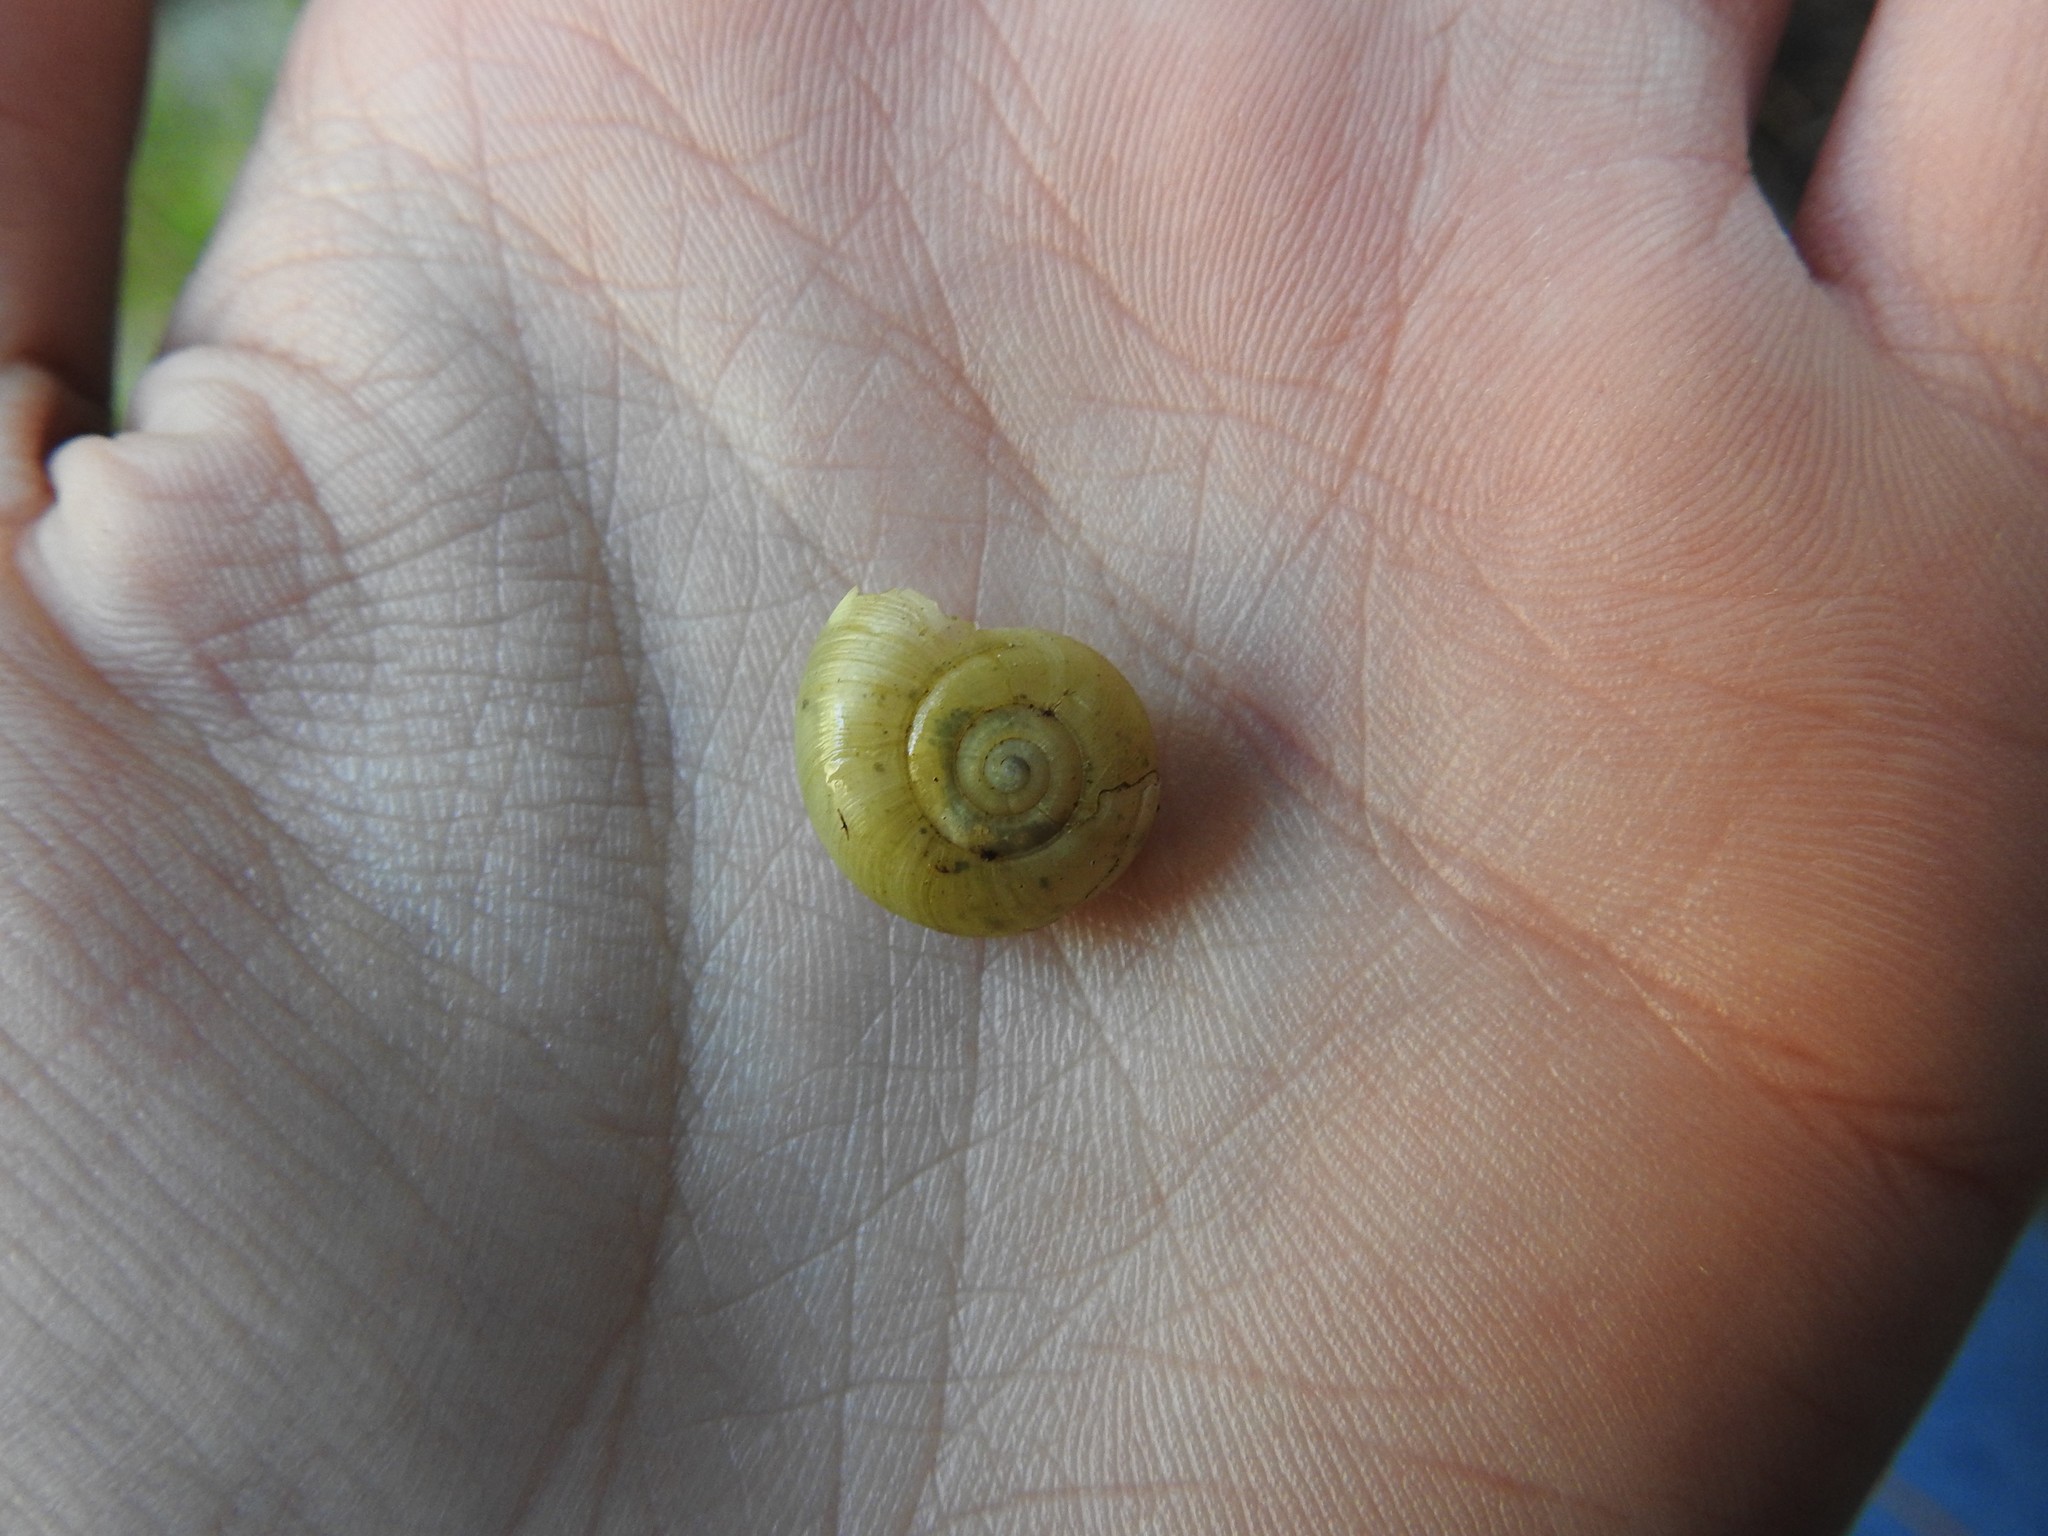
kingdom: Animalia
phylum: Mollusca
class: Gastropoda
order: Stylommatophora
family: Haplotrematidae
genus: Haplotrema
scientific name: Haplotrema vancouverense
